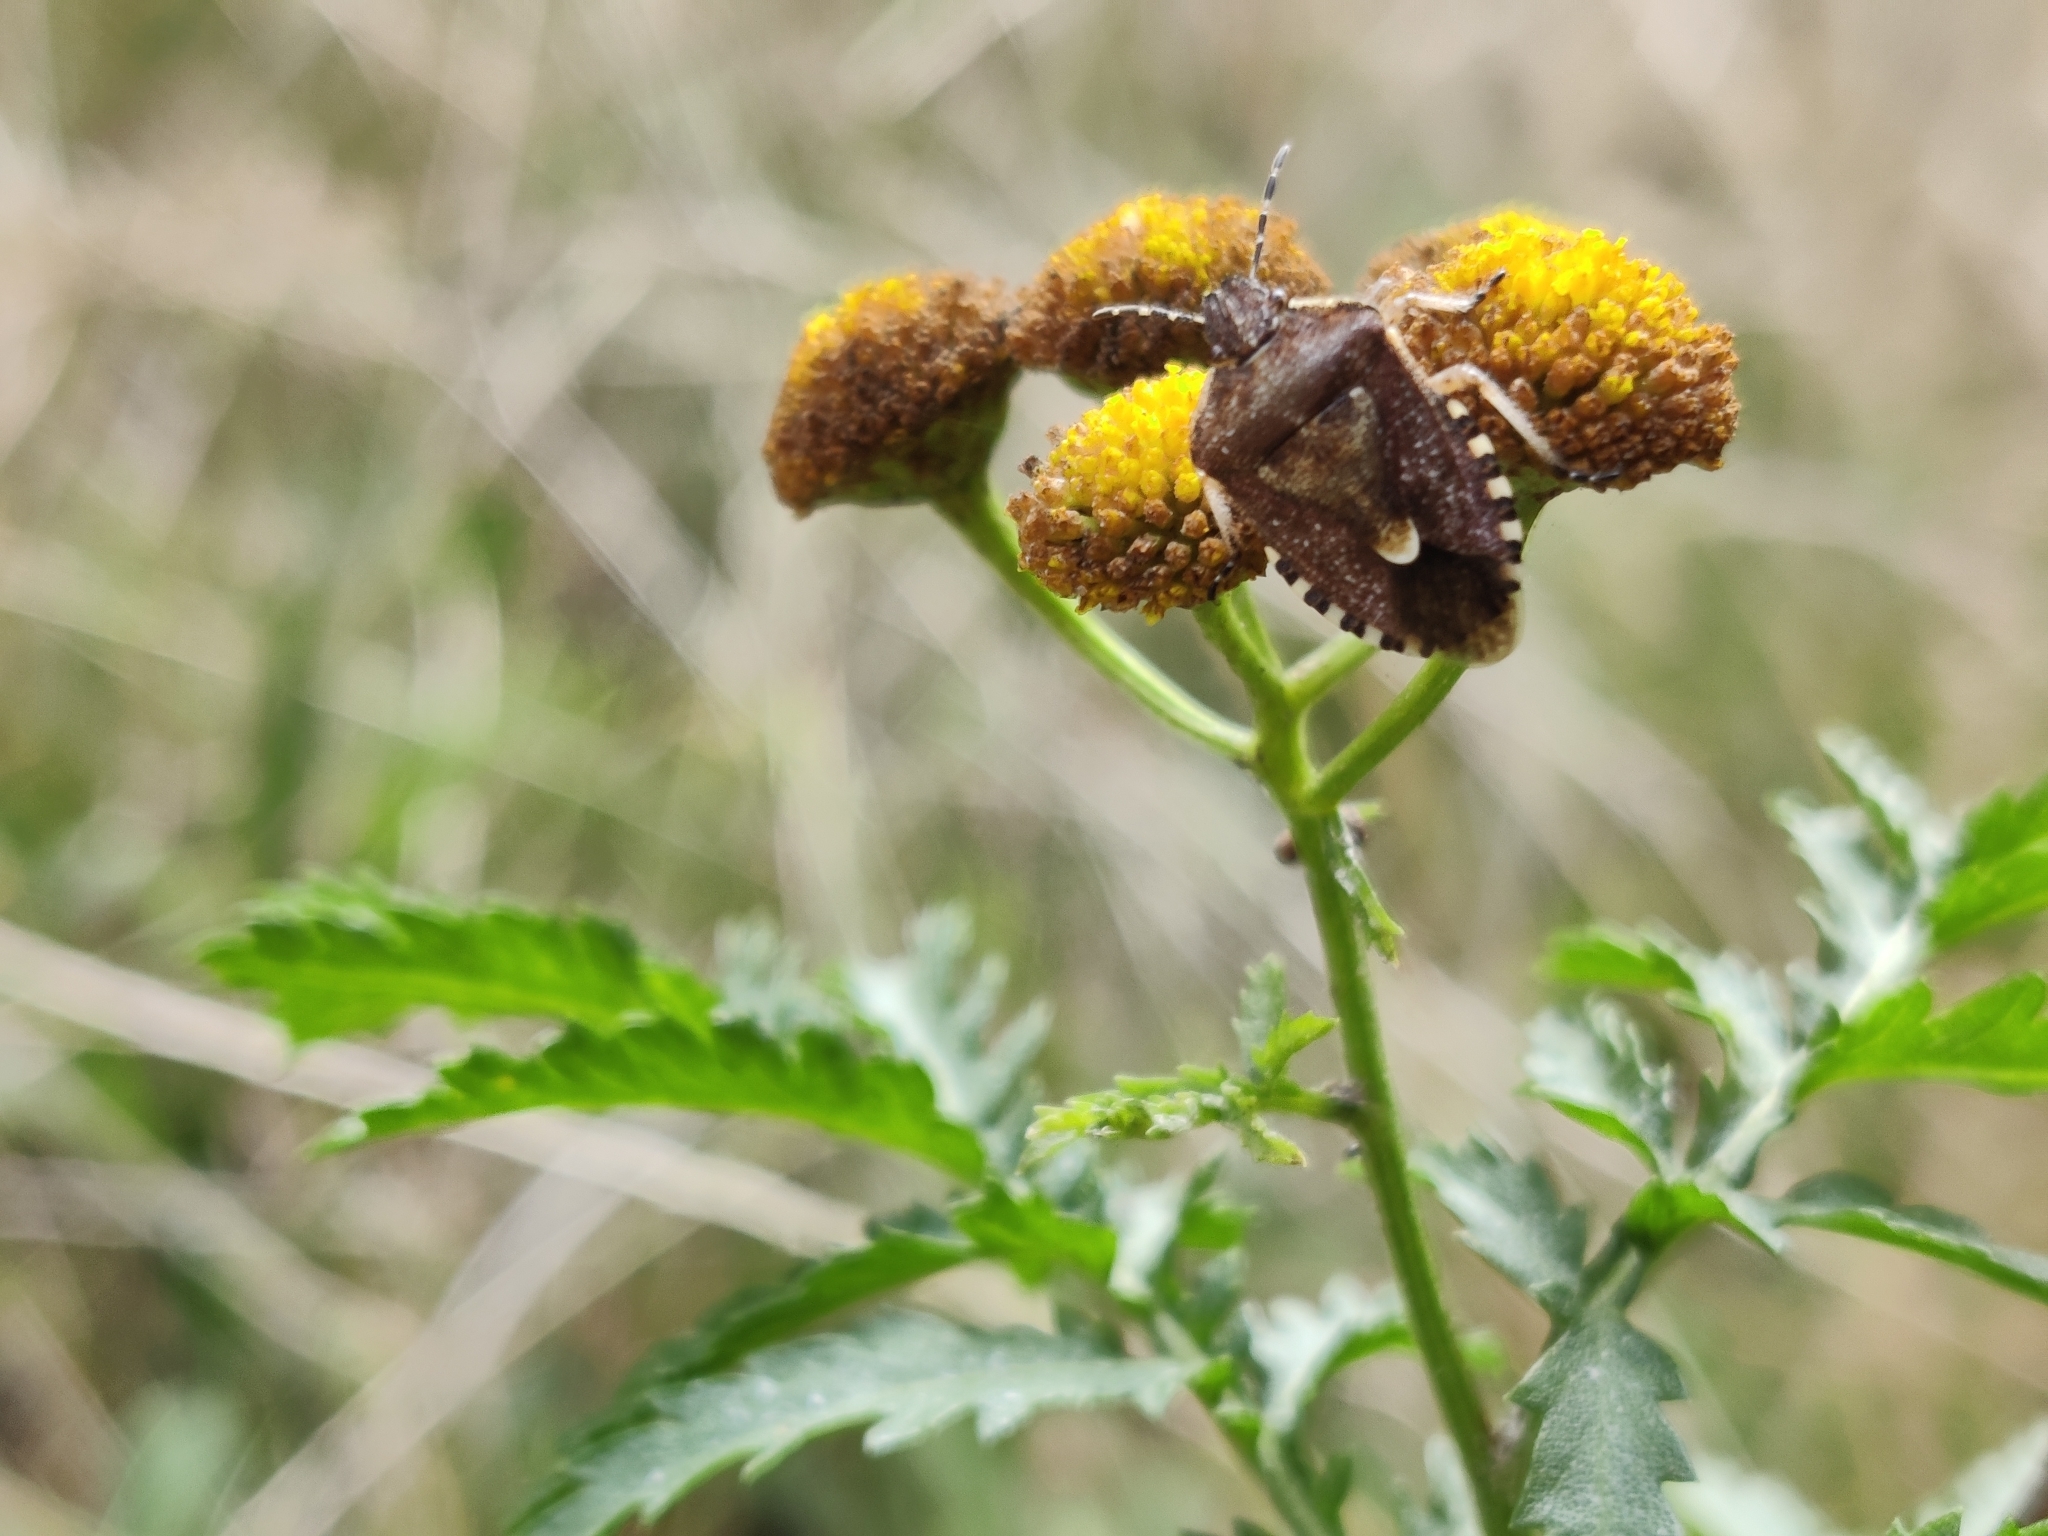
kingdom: Animalia
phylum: Arthropoda
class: Insecta
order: Hemiptera
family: Pentatomidae
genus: Dolycoris
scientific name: Dolycoris baccarum
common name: Sloe bug
